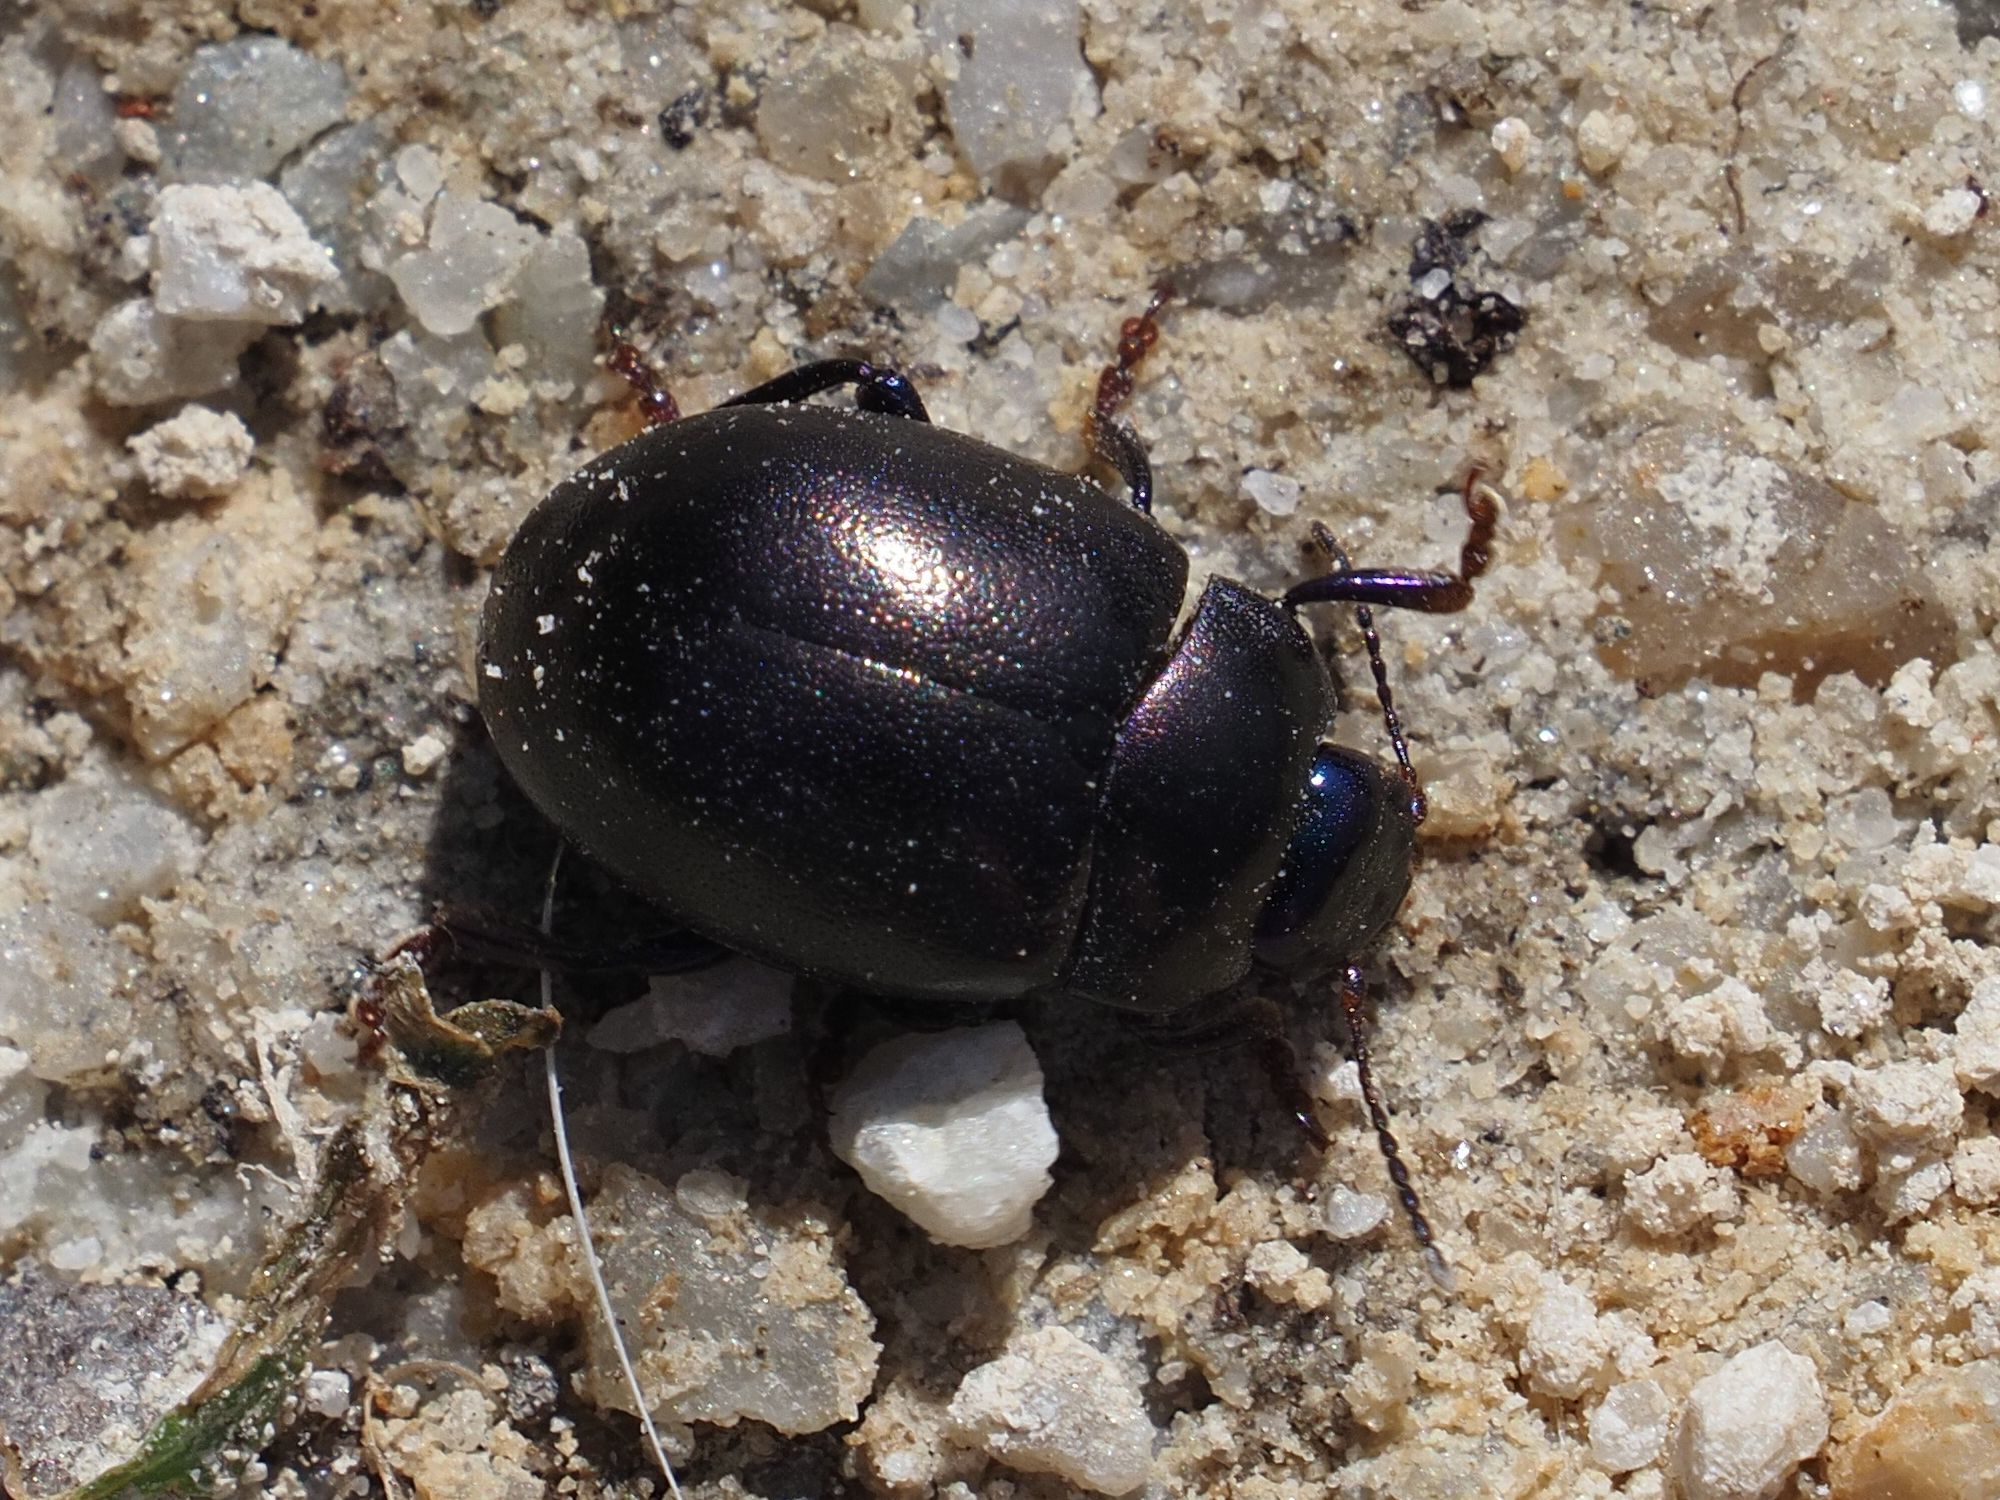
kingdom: Animalia
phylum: Arthropoda
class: Insecta
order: Coleoptera
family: Chrysomelidae
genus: Chrysolina
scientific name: Chrysolina sturmi
